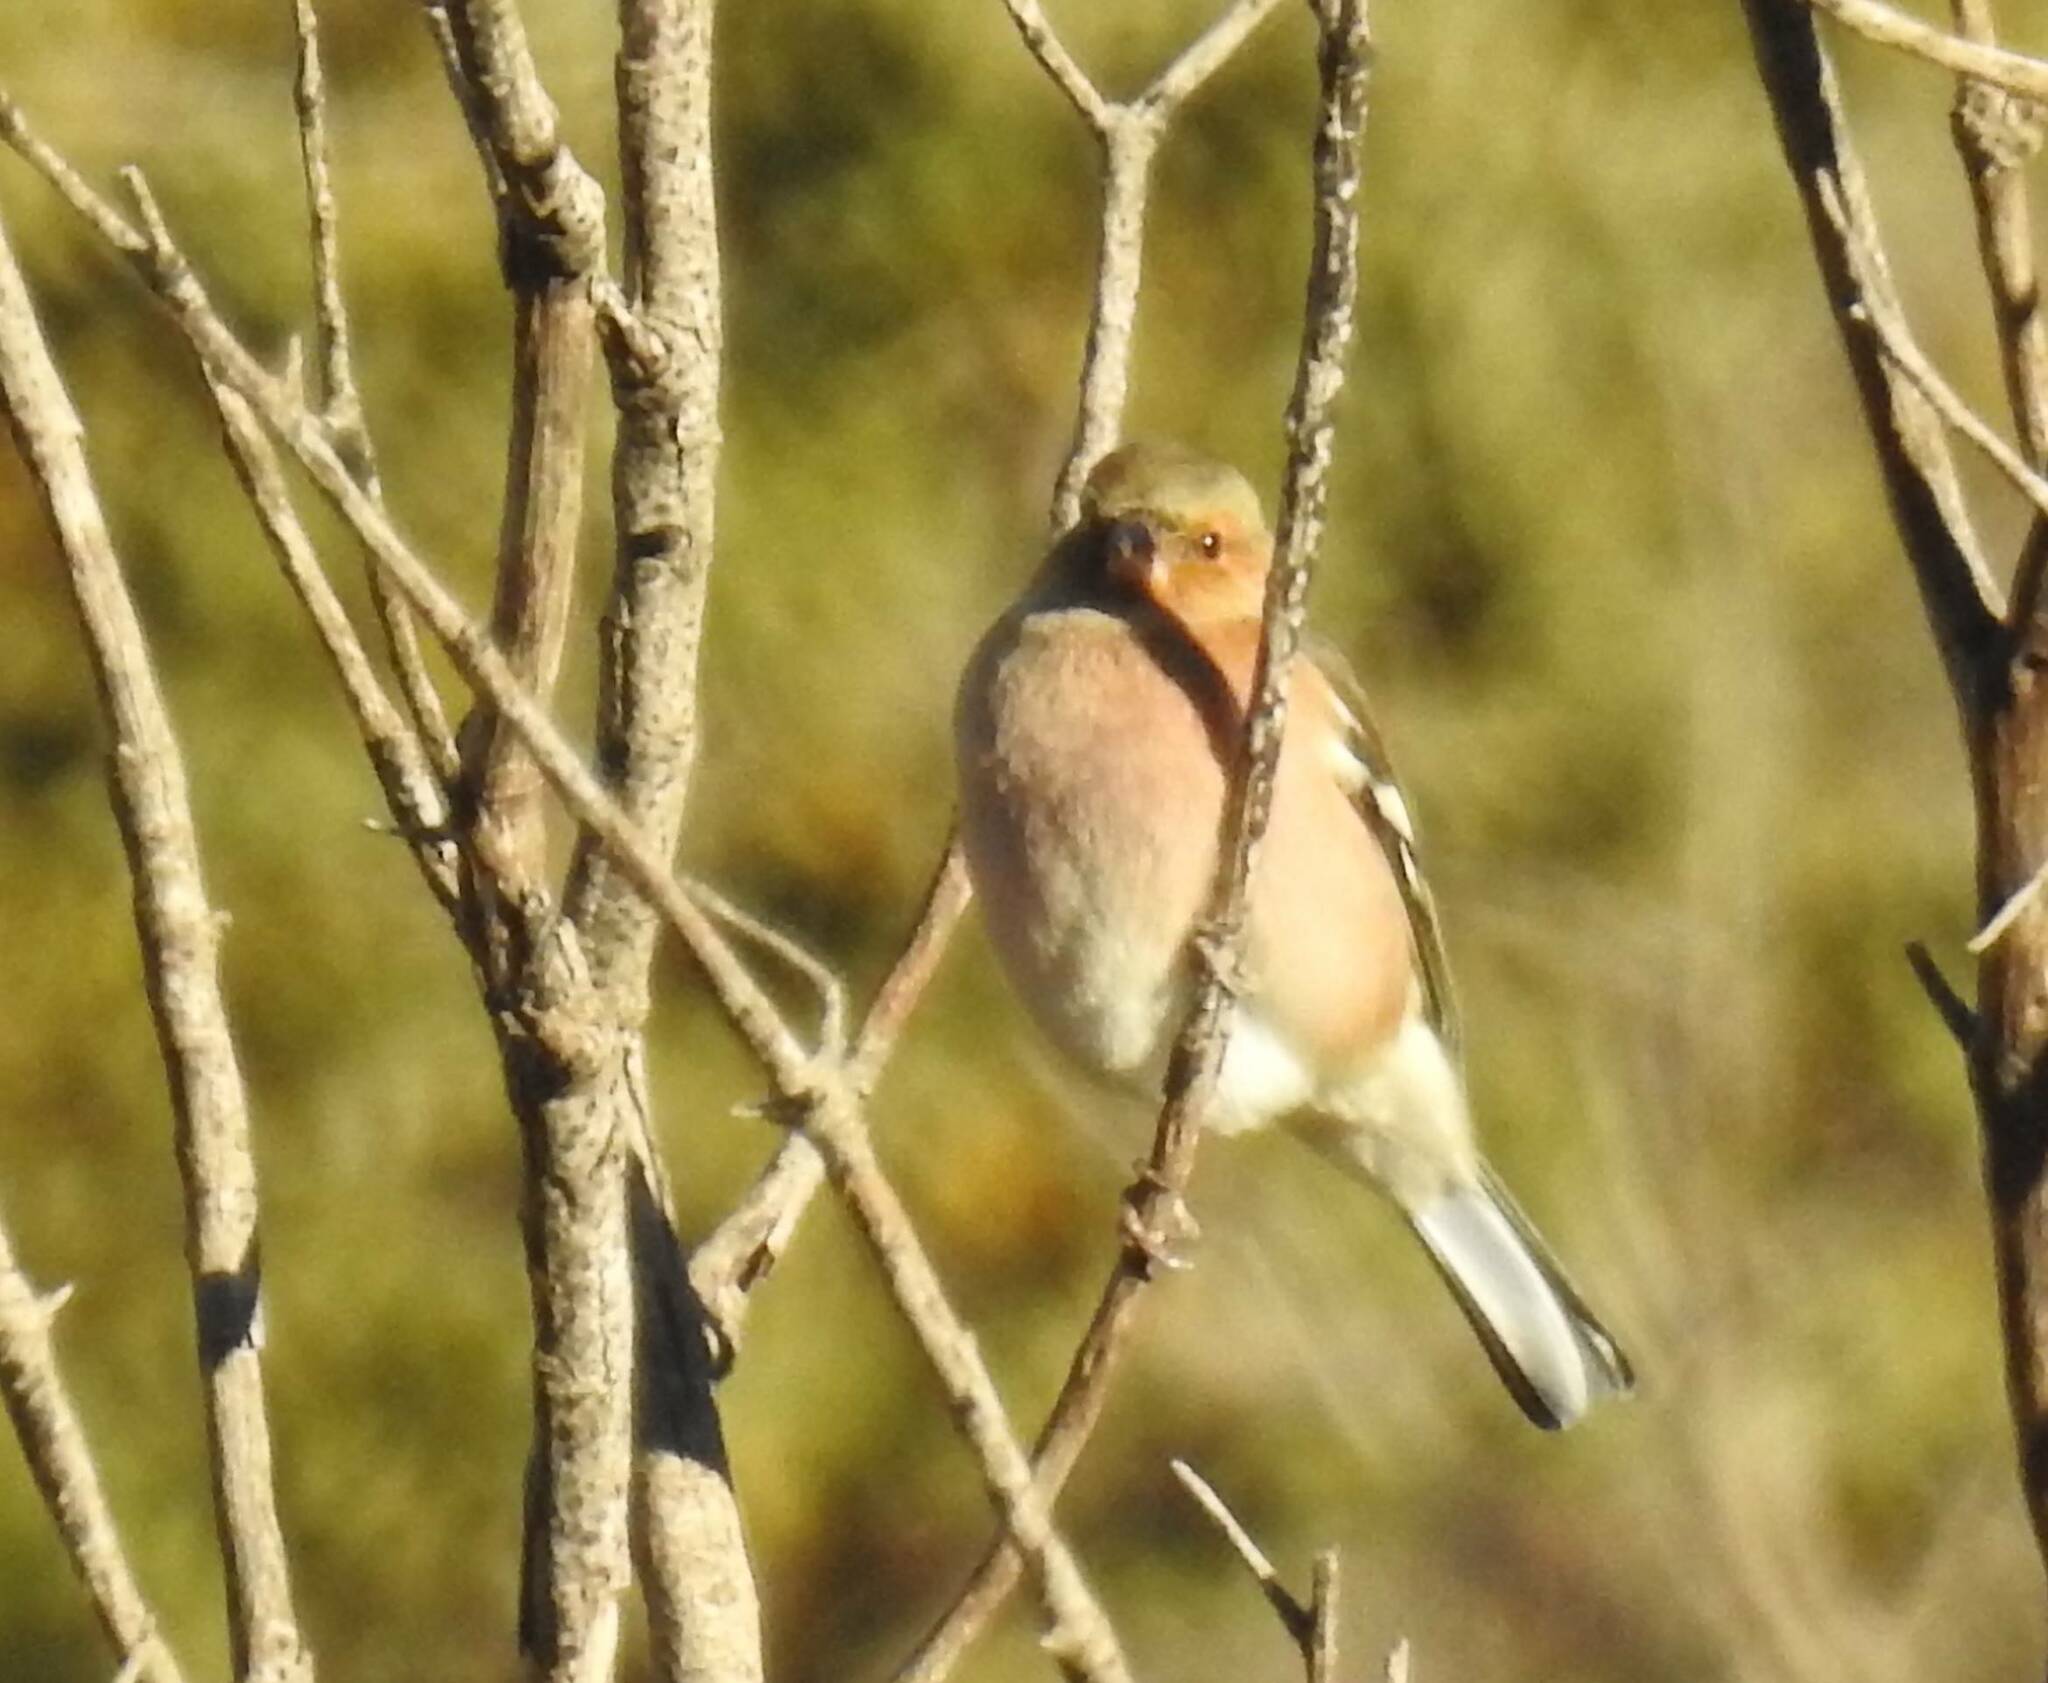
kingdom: Animalia
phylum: Chordata
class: Aves
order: Passeriformes
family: Fringillidae
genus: Fringilla
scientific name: Fringilla coelebs
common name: Common chaffinch
